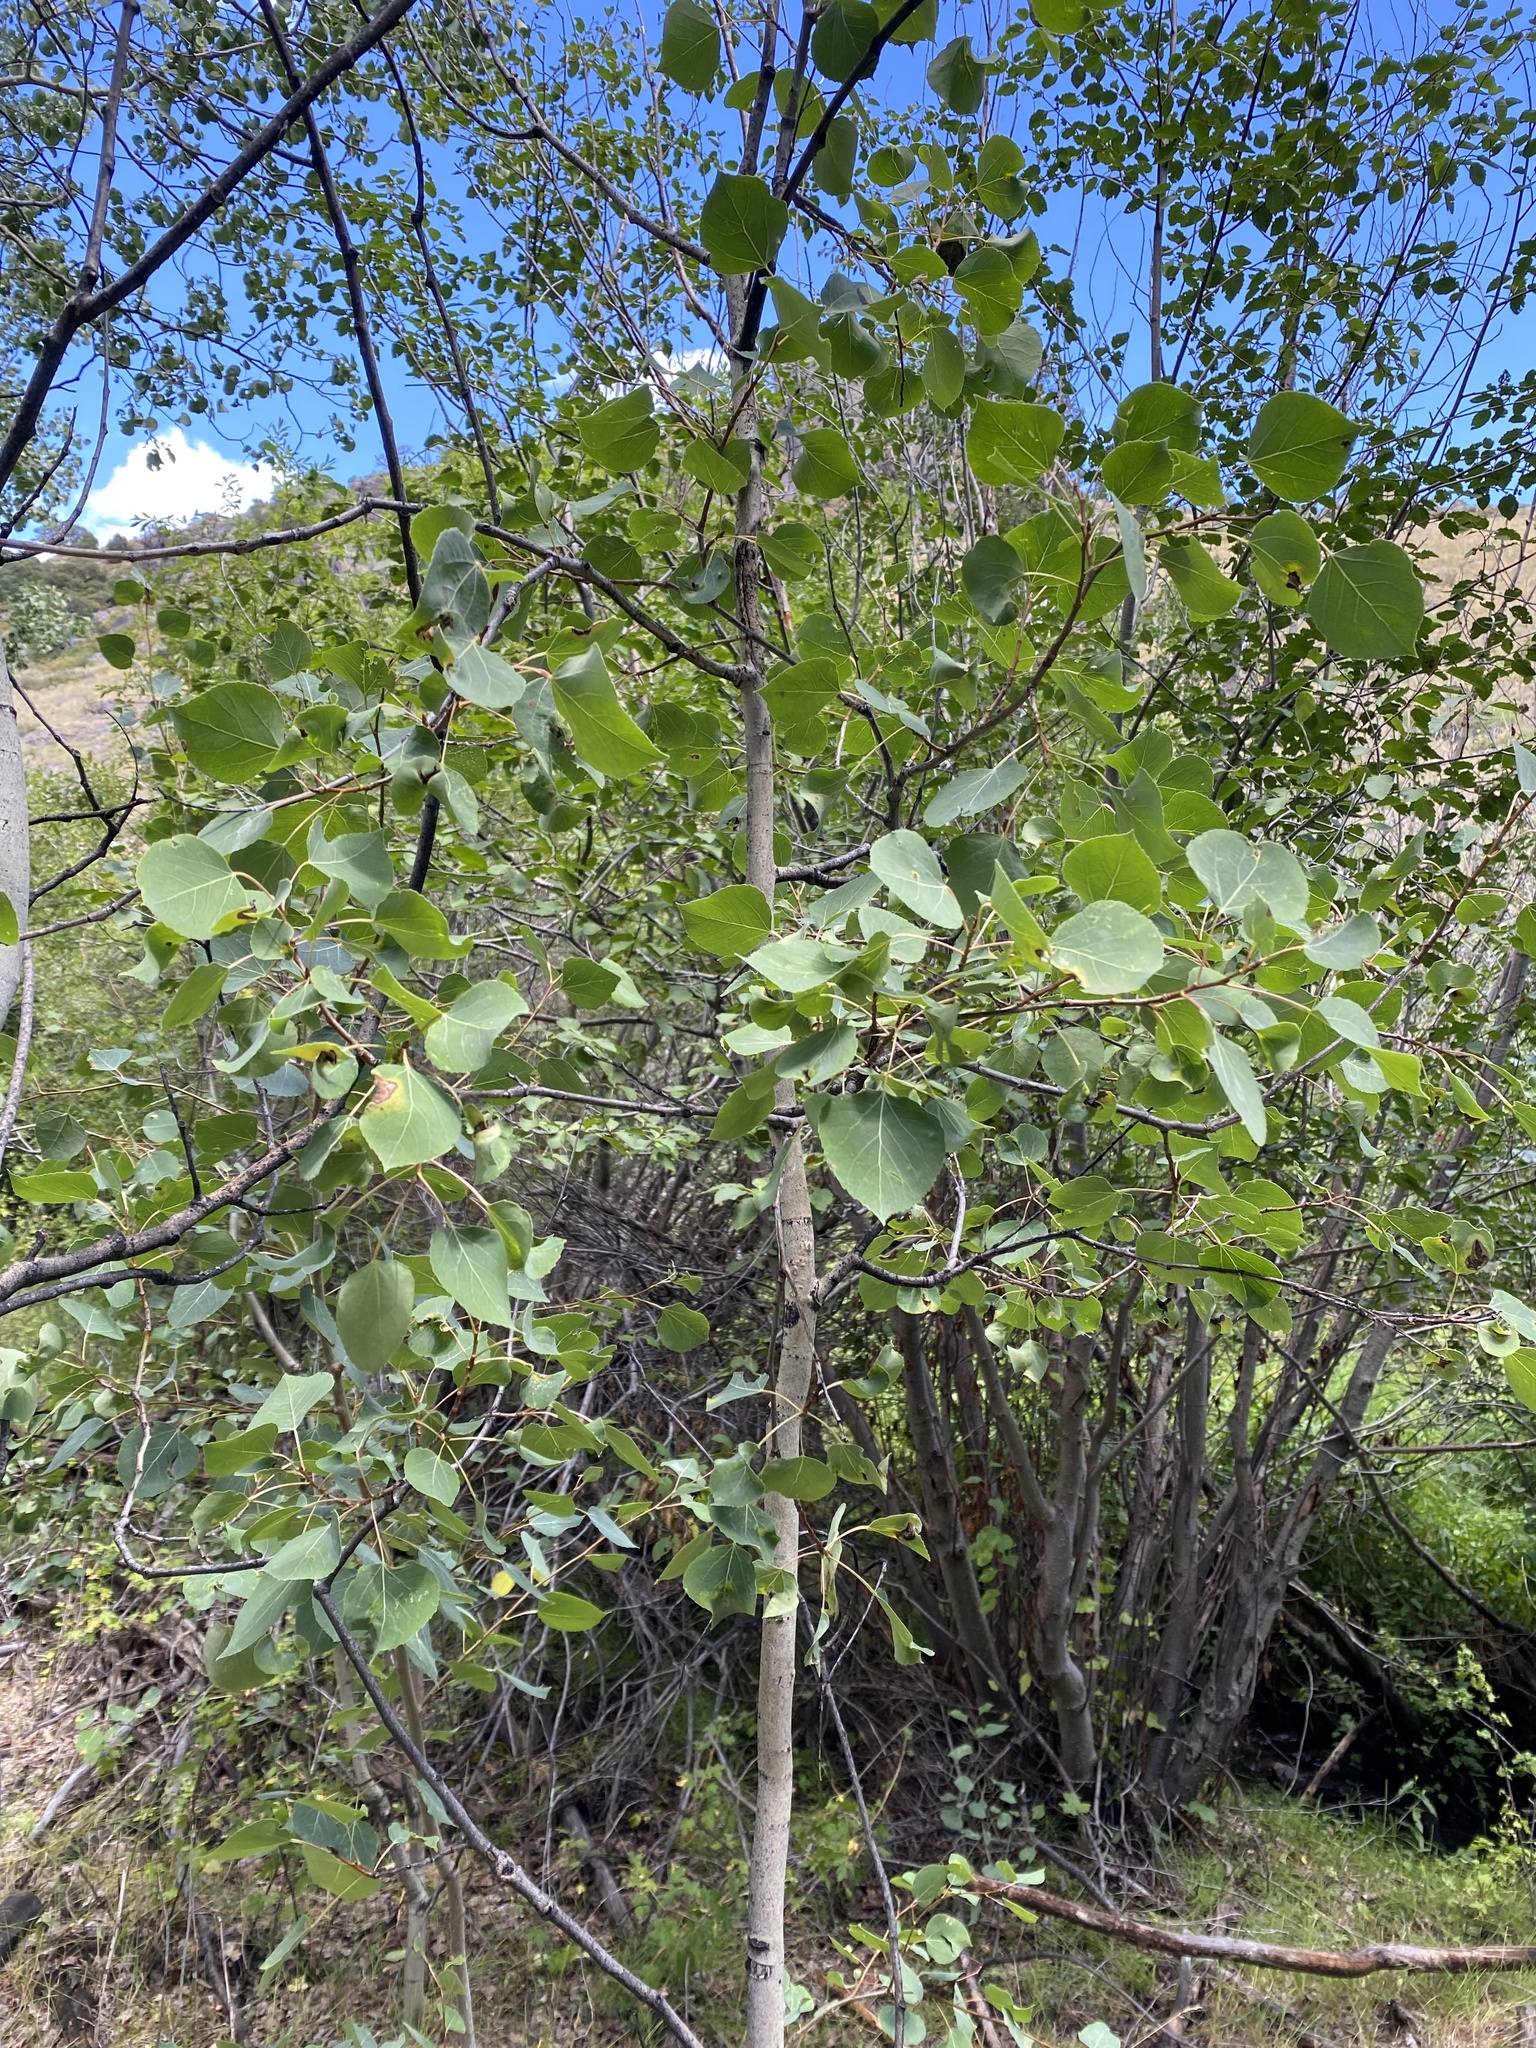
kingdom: Plantae
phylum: Tracheophyta
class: Magnoliopsida
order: Malpighiales
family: Salicaceae
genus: Populus
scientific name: Populus tremuloides
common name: Quaking aspen
